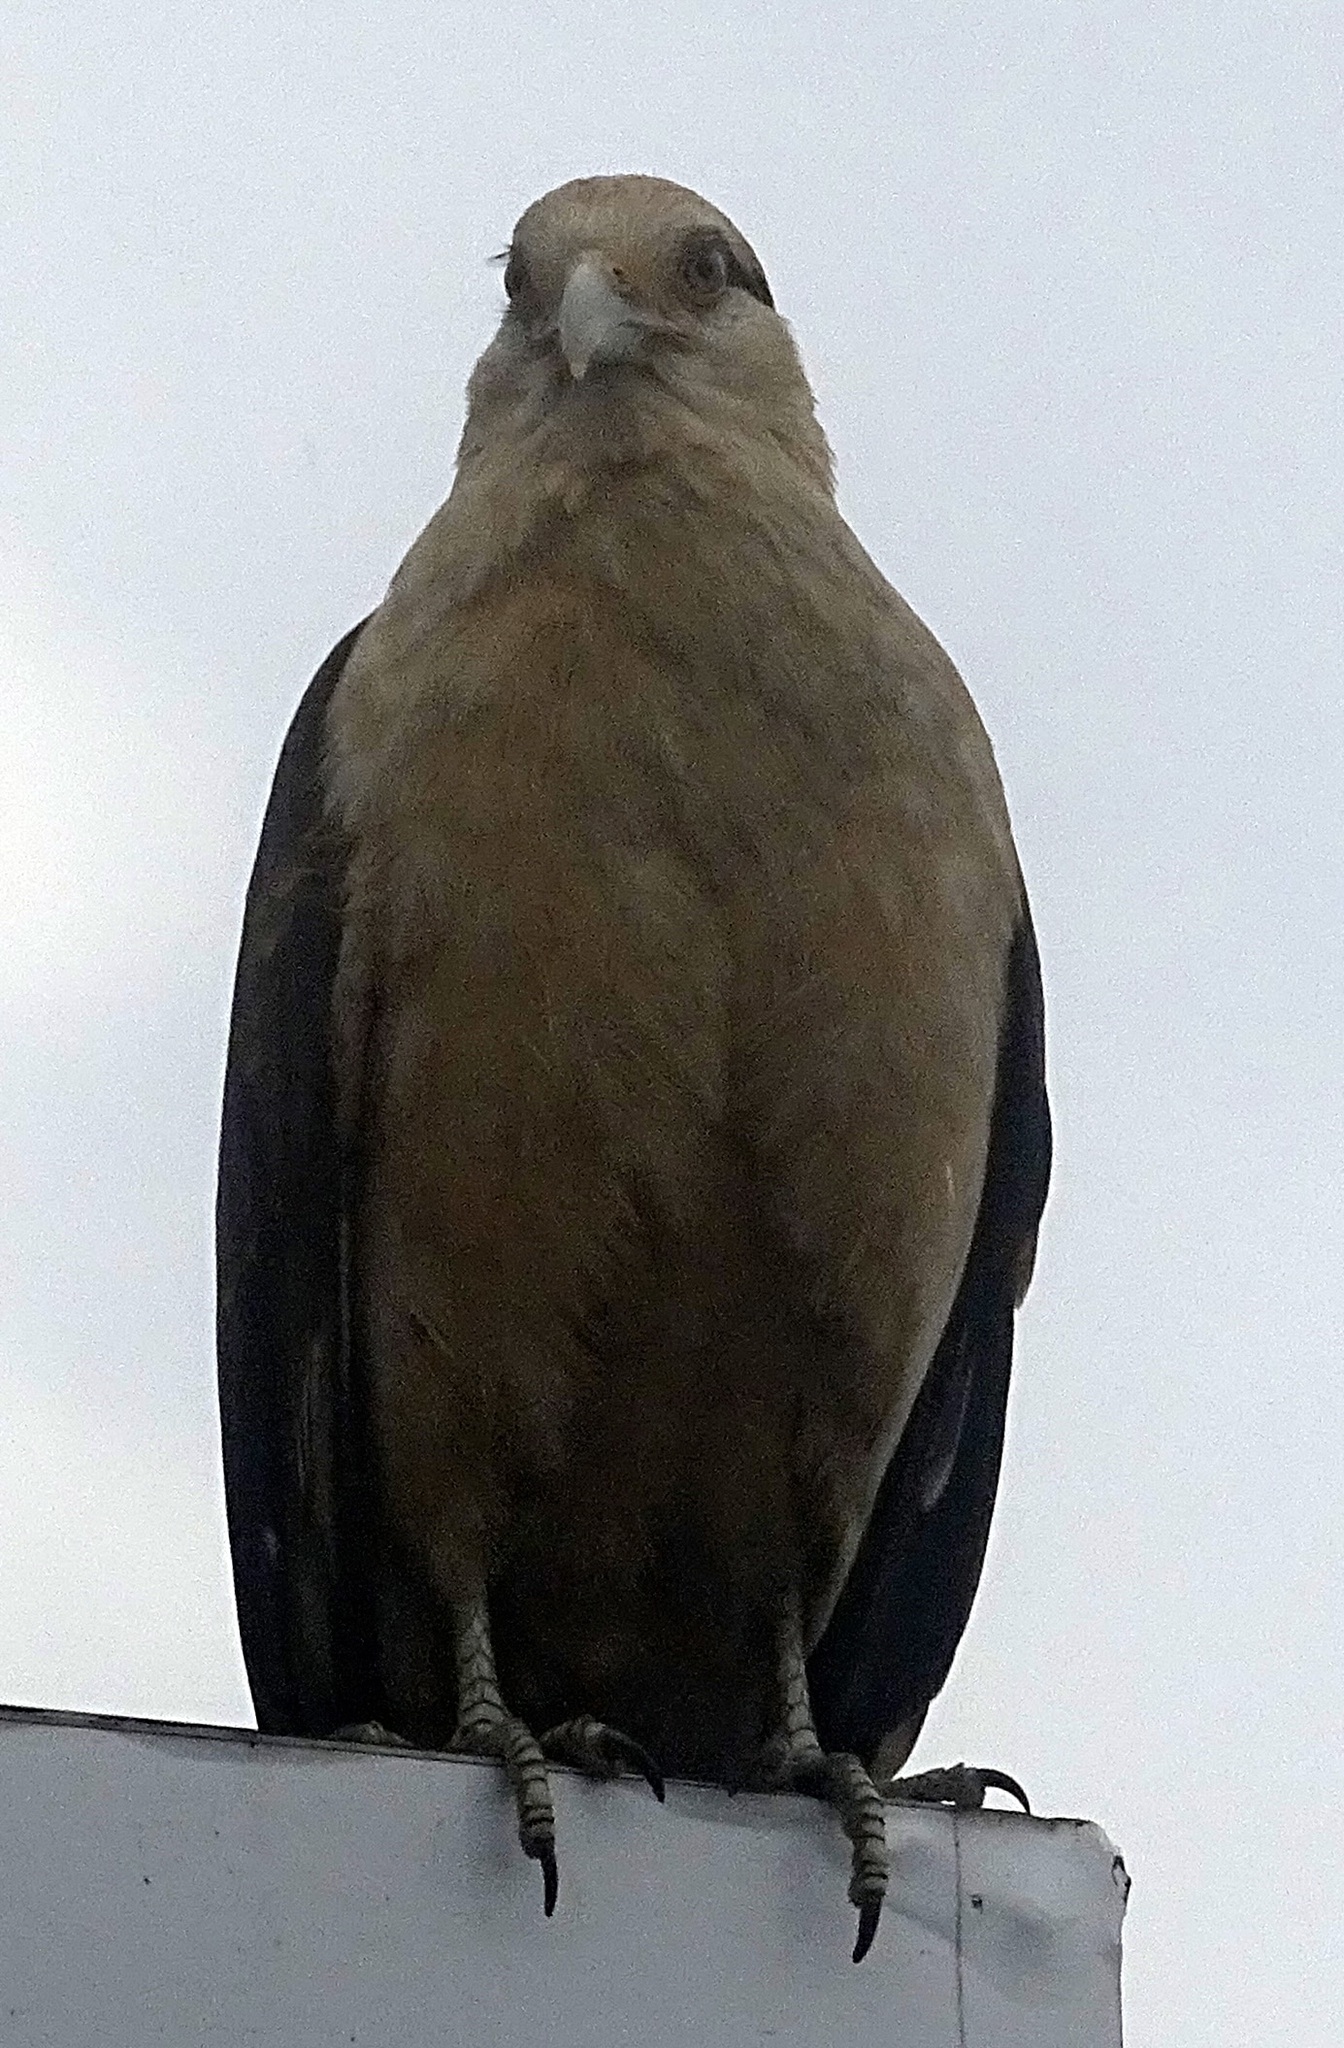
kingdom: Animalia
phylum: Chordata
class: Aves
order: Falconiformes
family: Falconidae
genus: Daptrius
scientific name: Daptrius
